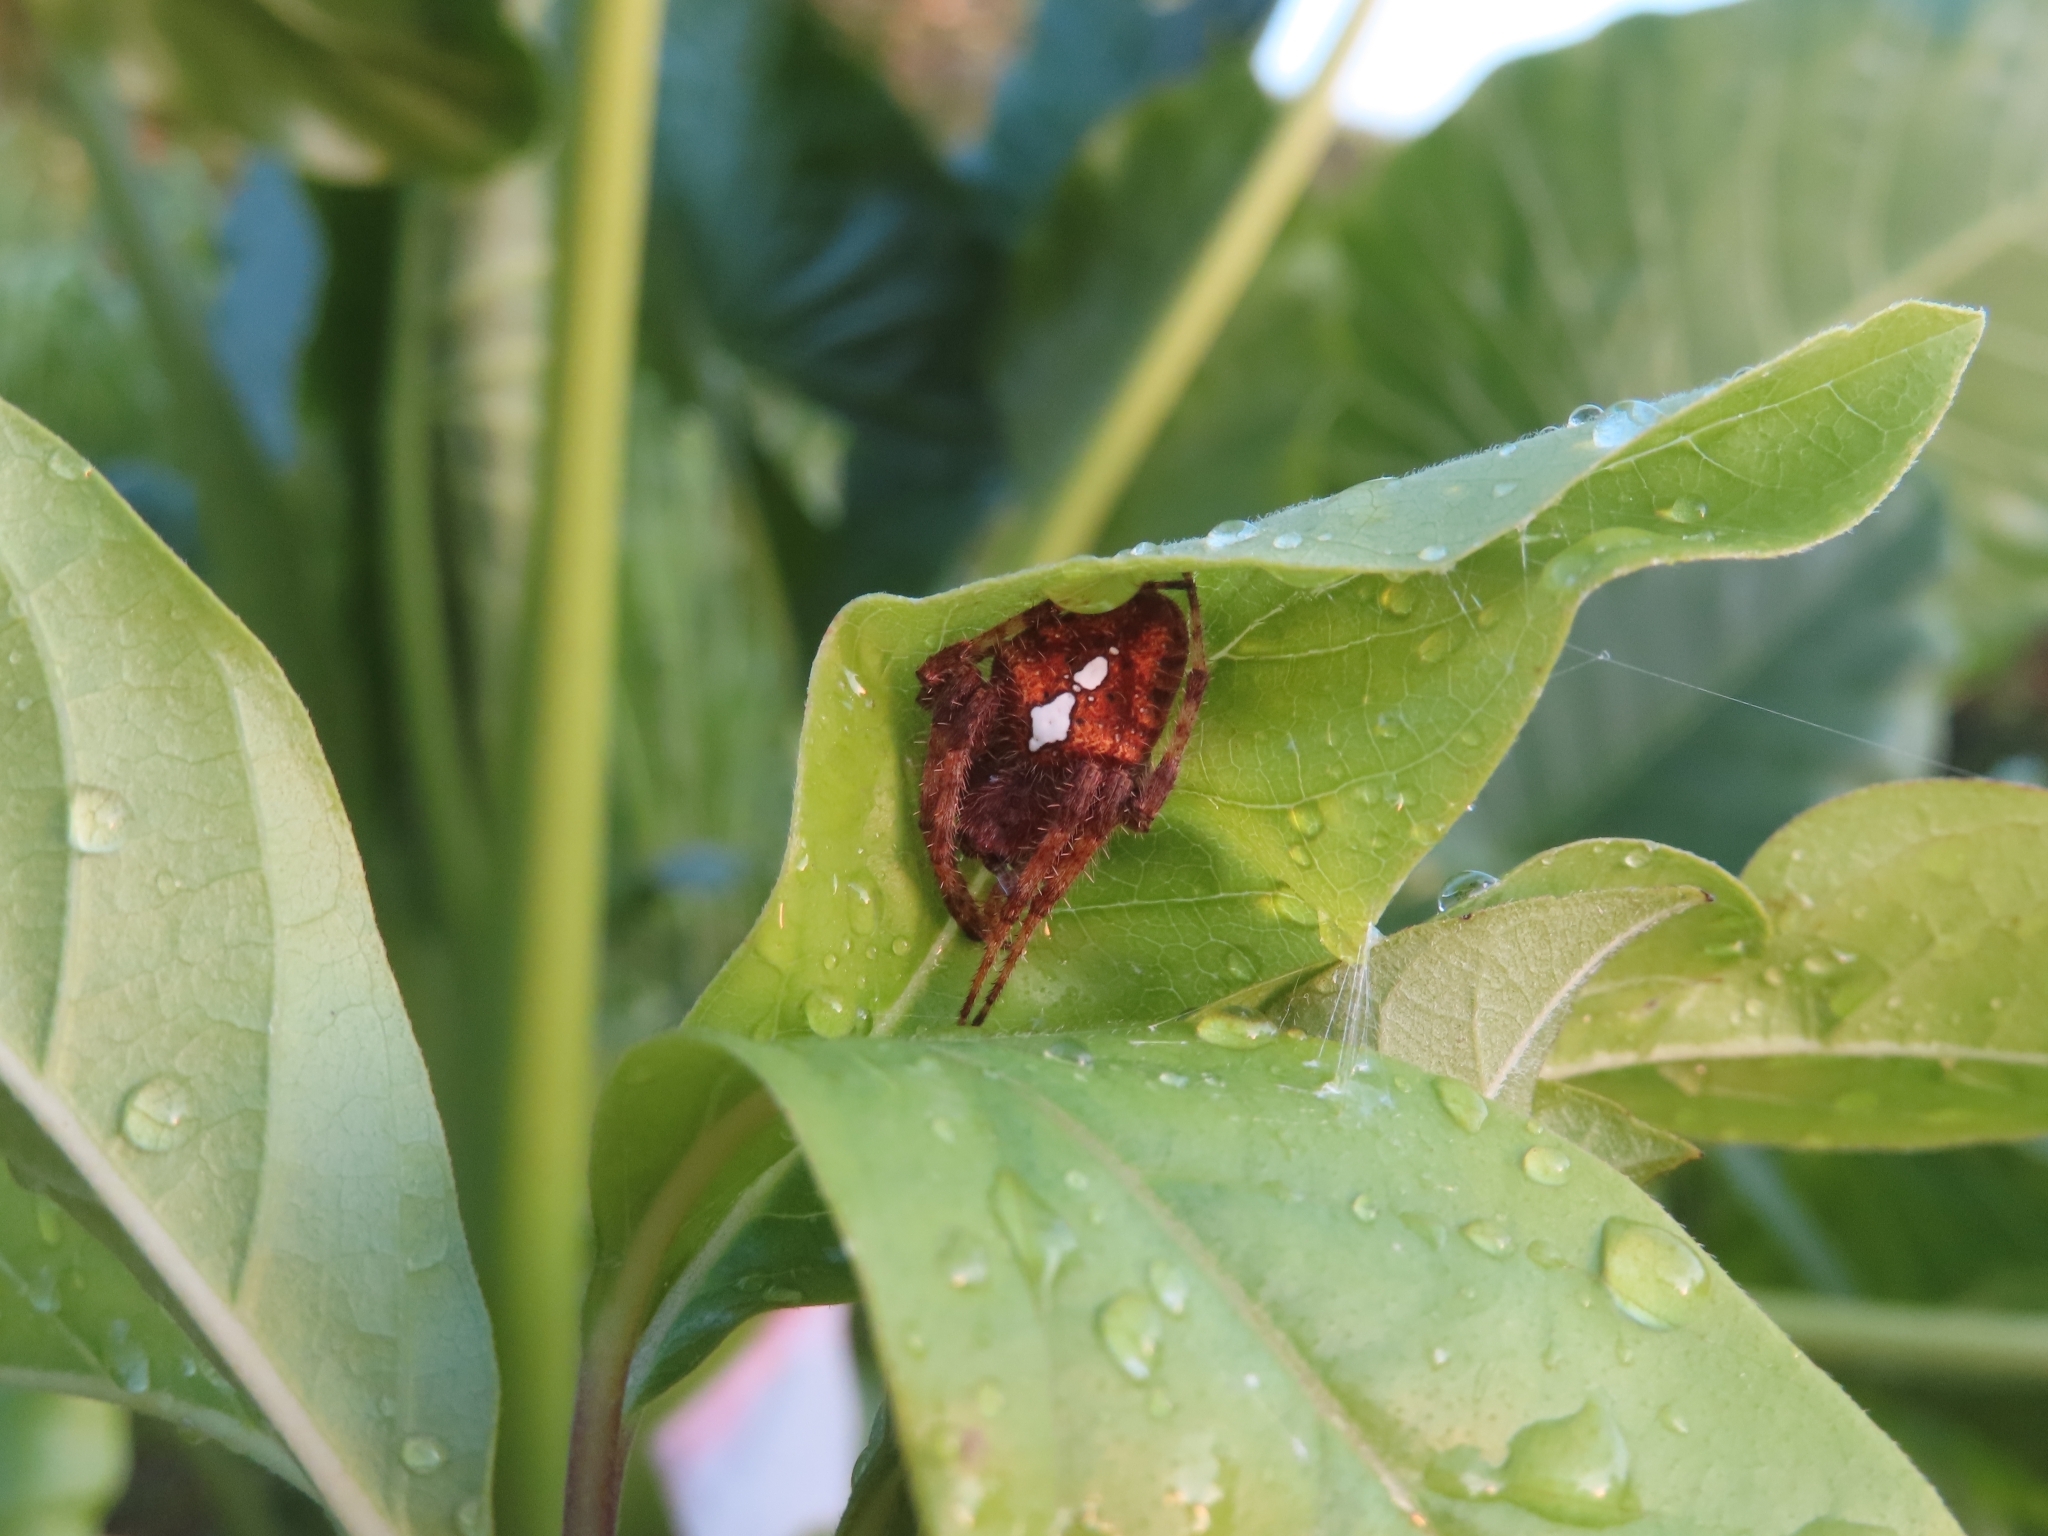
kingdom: Animalia
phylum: Arthropoda
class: Arachnida
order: Araneae
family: Araneidae
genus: Eriophora
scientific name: Eriophora edax
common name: Orb weavers
